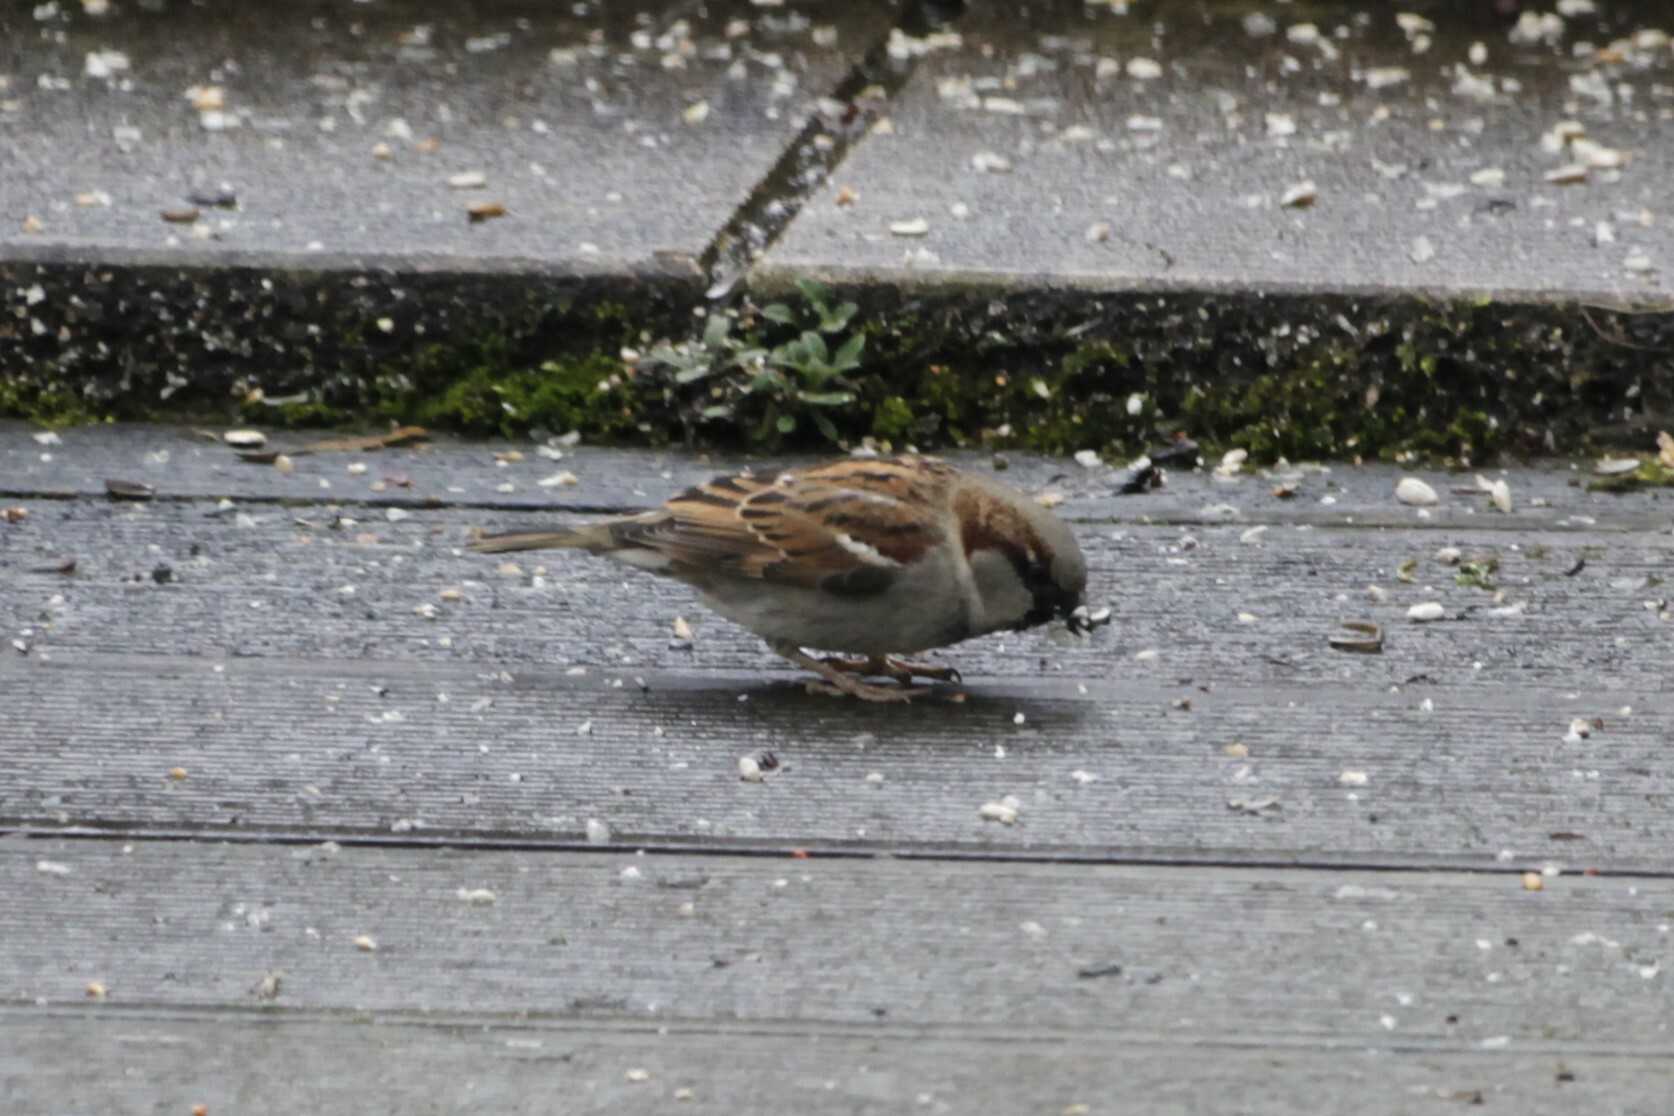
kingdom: Animalia
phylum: Chordata
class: Aves
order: Passeriformes
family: Passeridae
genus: Passer
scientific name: Passer domesticus
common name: House sparrow
